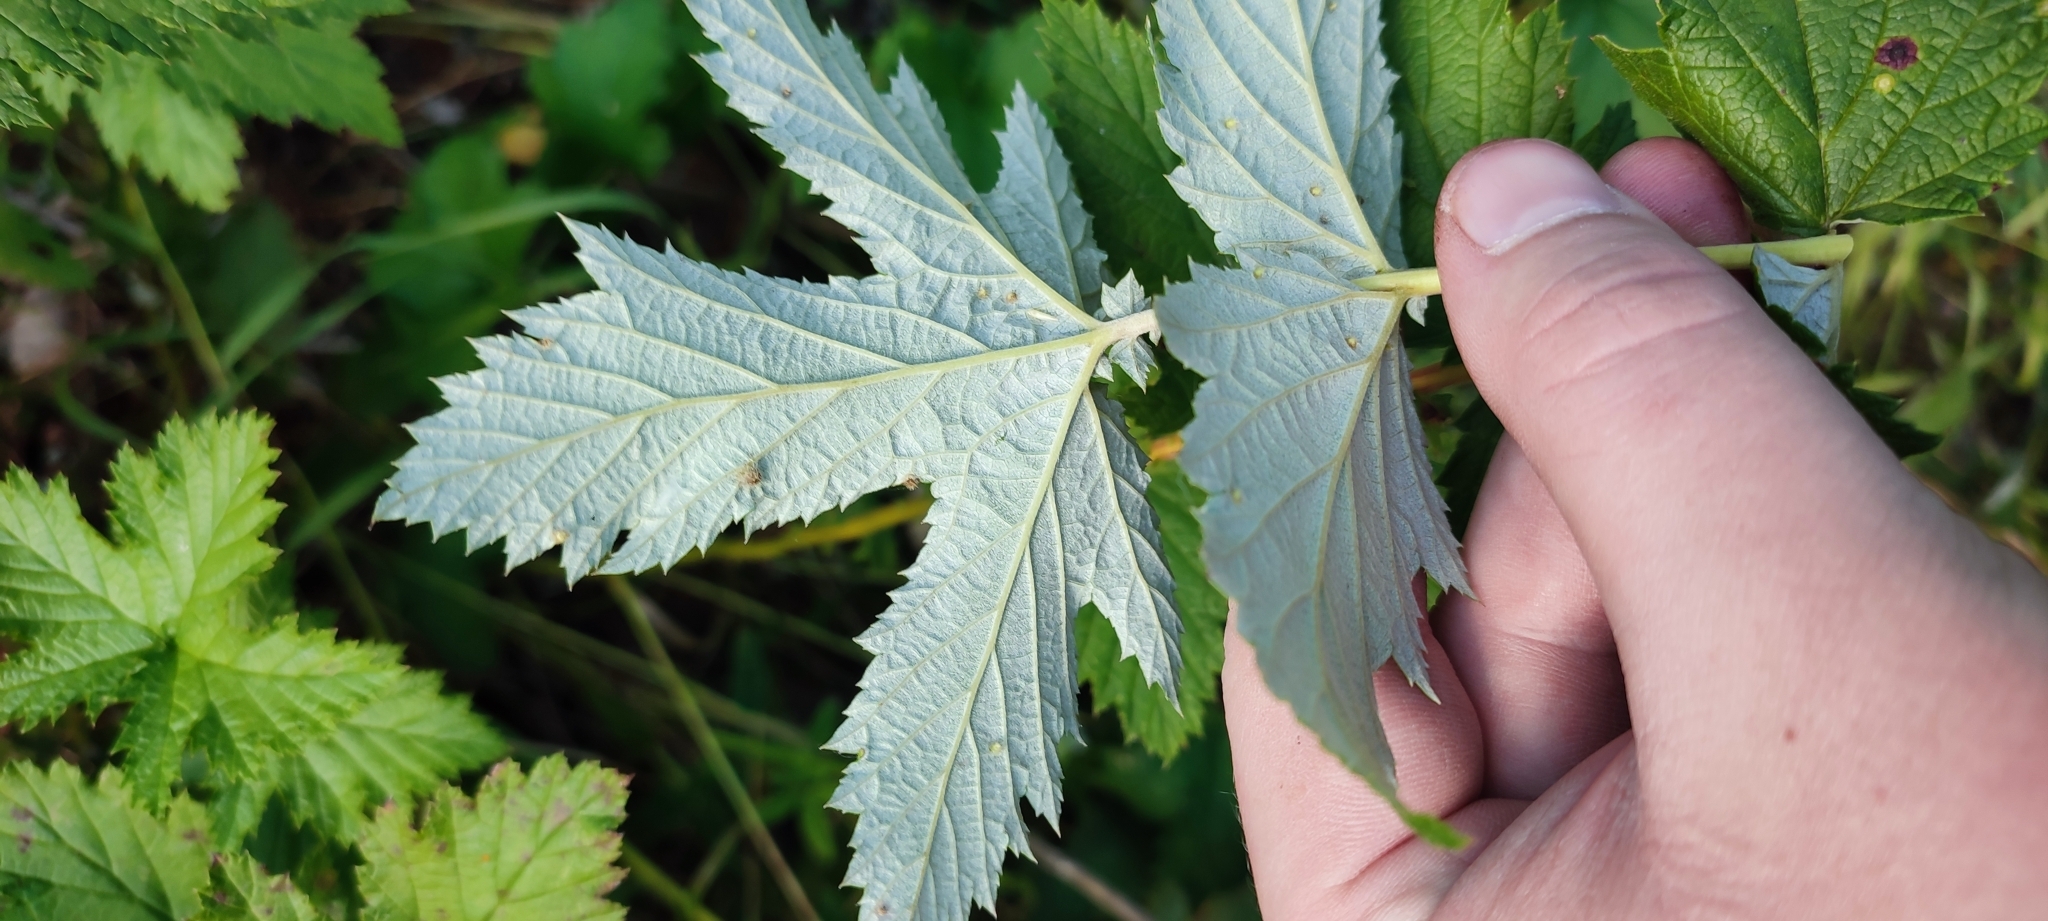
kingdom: Plantae
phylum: Tracheophyta
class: Magnoliopsida
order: Rosales
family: Rosaceae
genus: Filipendula
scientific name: Filipendula ulmaria
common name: Meadowsweet
